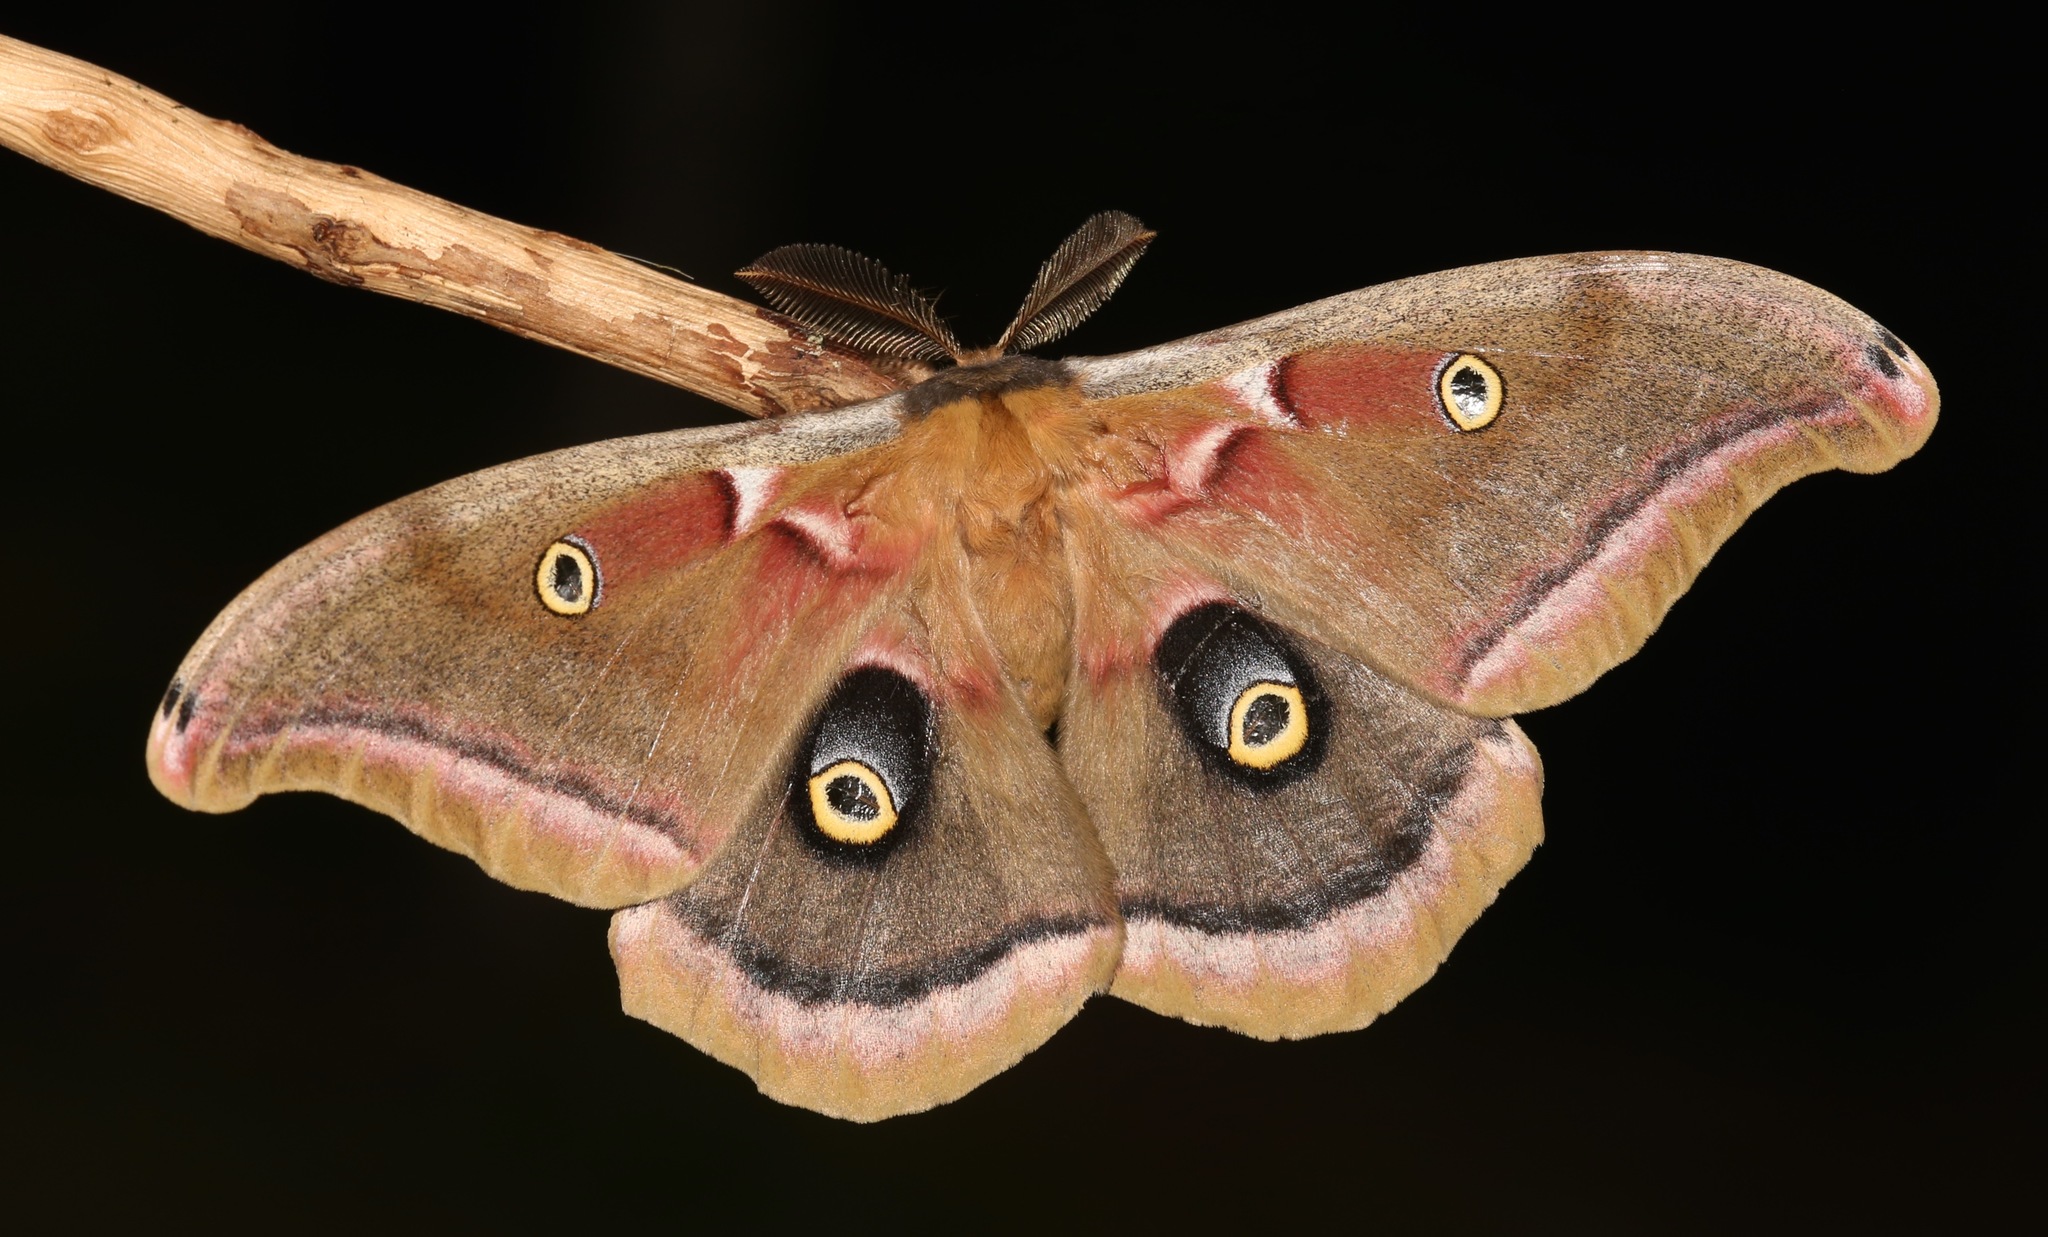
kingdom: Animalia
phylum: Arthropoda
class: Insecta
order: Lepidoptera
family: Saturniidae
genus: Antheraea
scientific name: Antheraea polyphemus
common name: Polyphemus moth
